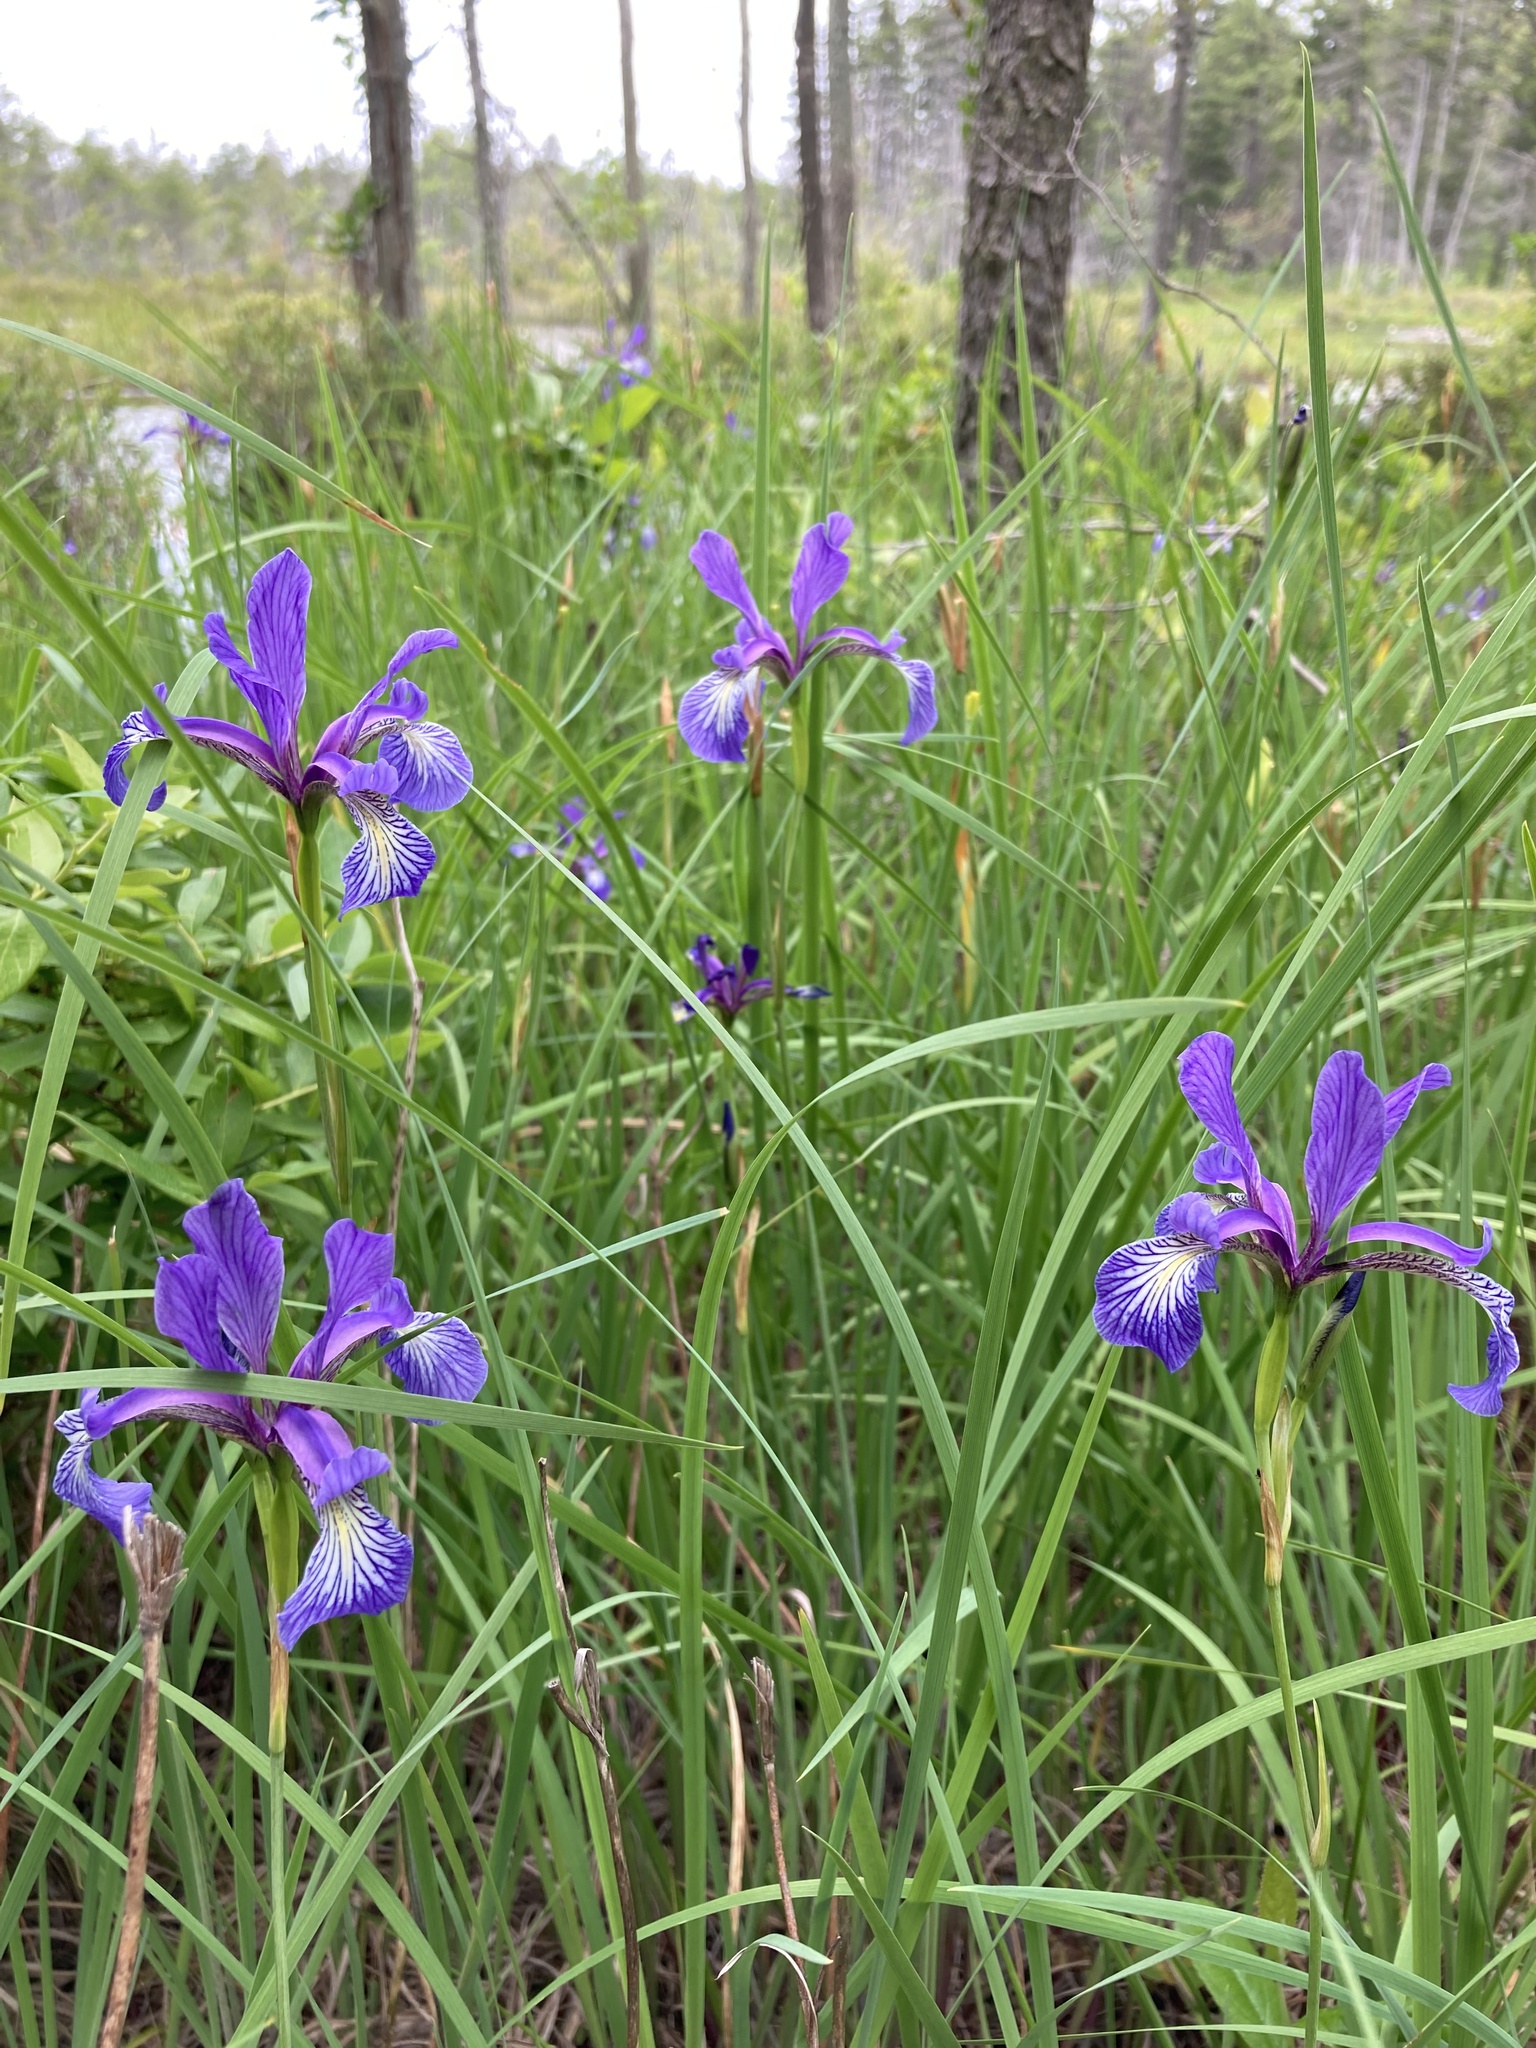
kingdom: Plantae
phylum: Tracheophyta
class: Liliopsida
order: Asparagales
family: Iridaceae
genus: Iris
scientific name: Iris prismatica
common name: Slender blue flag
